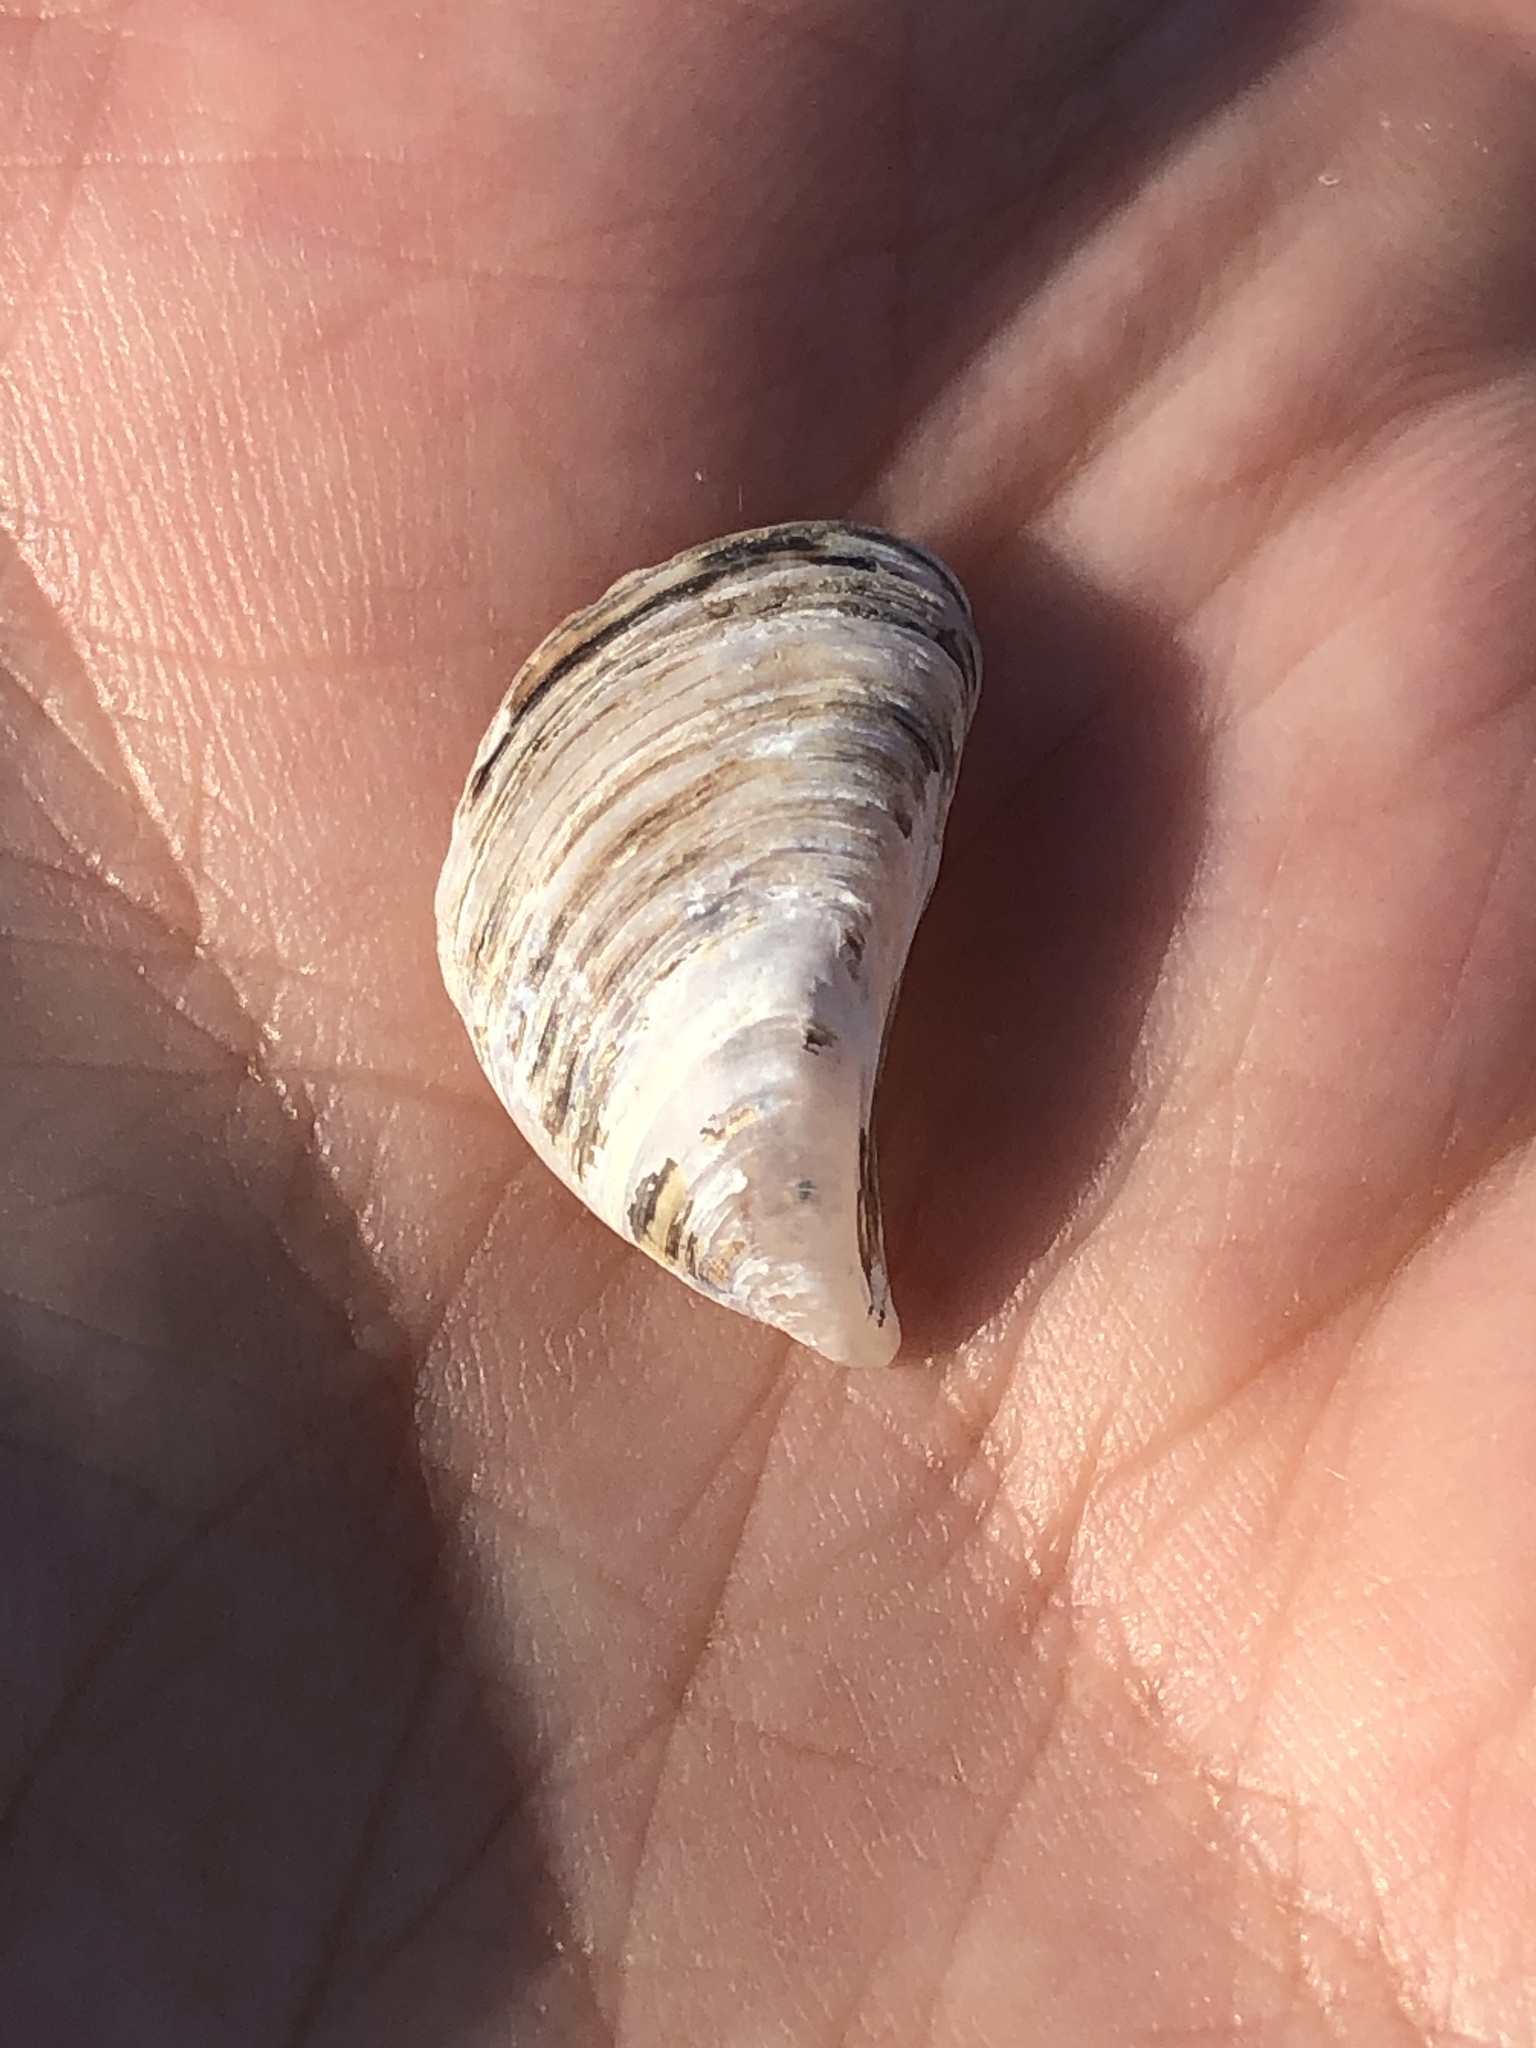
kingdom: Animalia
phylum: Mollusca
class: Bivalvia
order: Myida
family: Dreissenidae
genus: Dreissena
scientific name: Dreissena bugensis
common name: Quagga mussel
